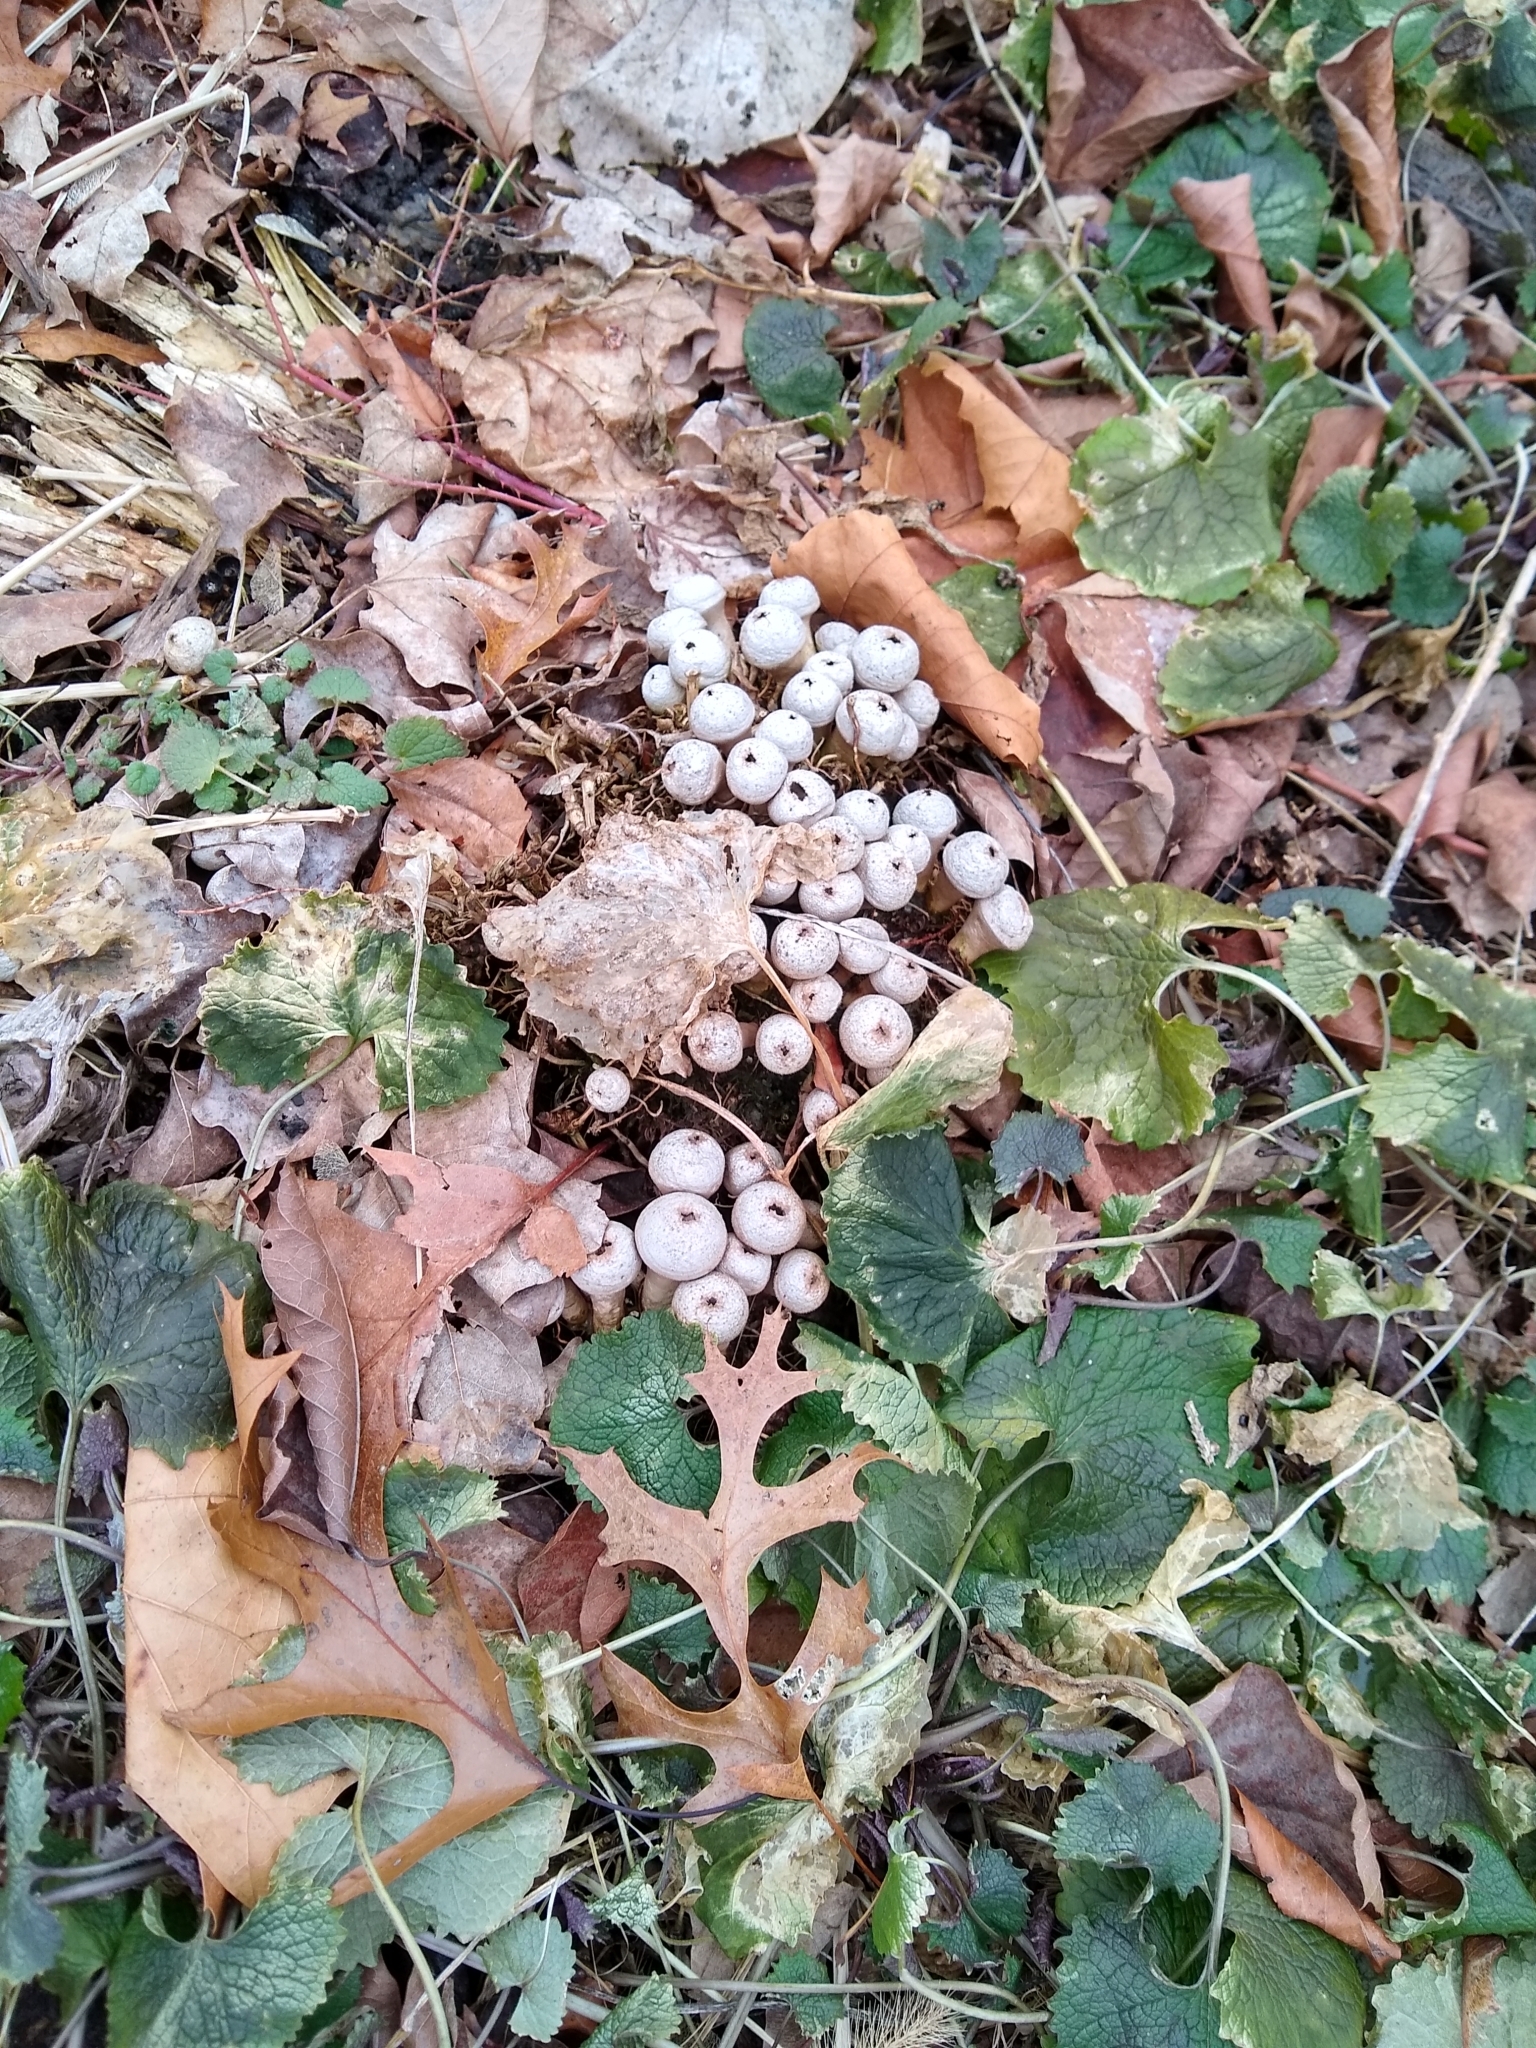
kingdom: Fungi
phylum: Basidiomycota
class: Agaricomycetes
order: Agaricales
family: Lycoperdaceae
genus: Apioperdon
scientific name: Apioperdon pyriforme
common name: Pear-shaped puffball
